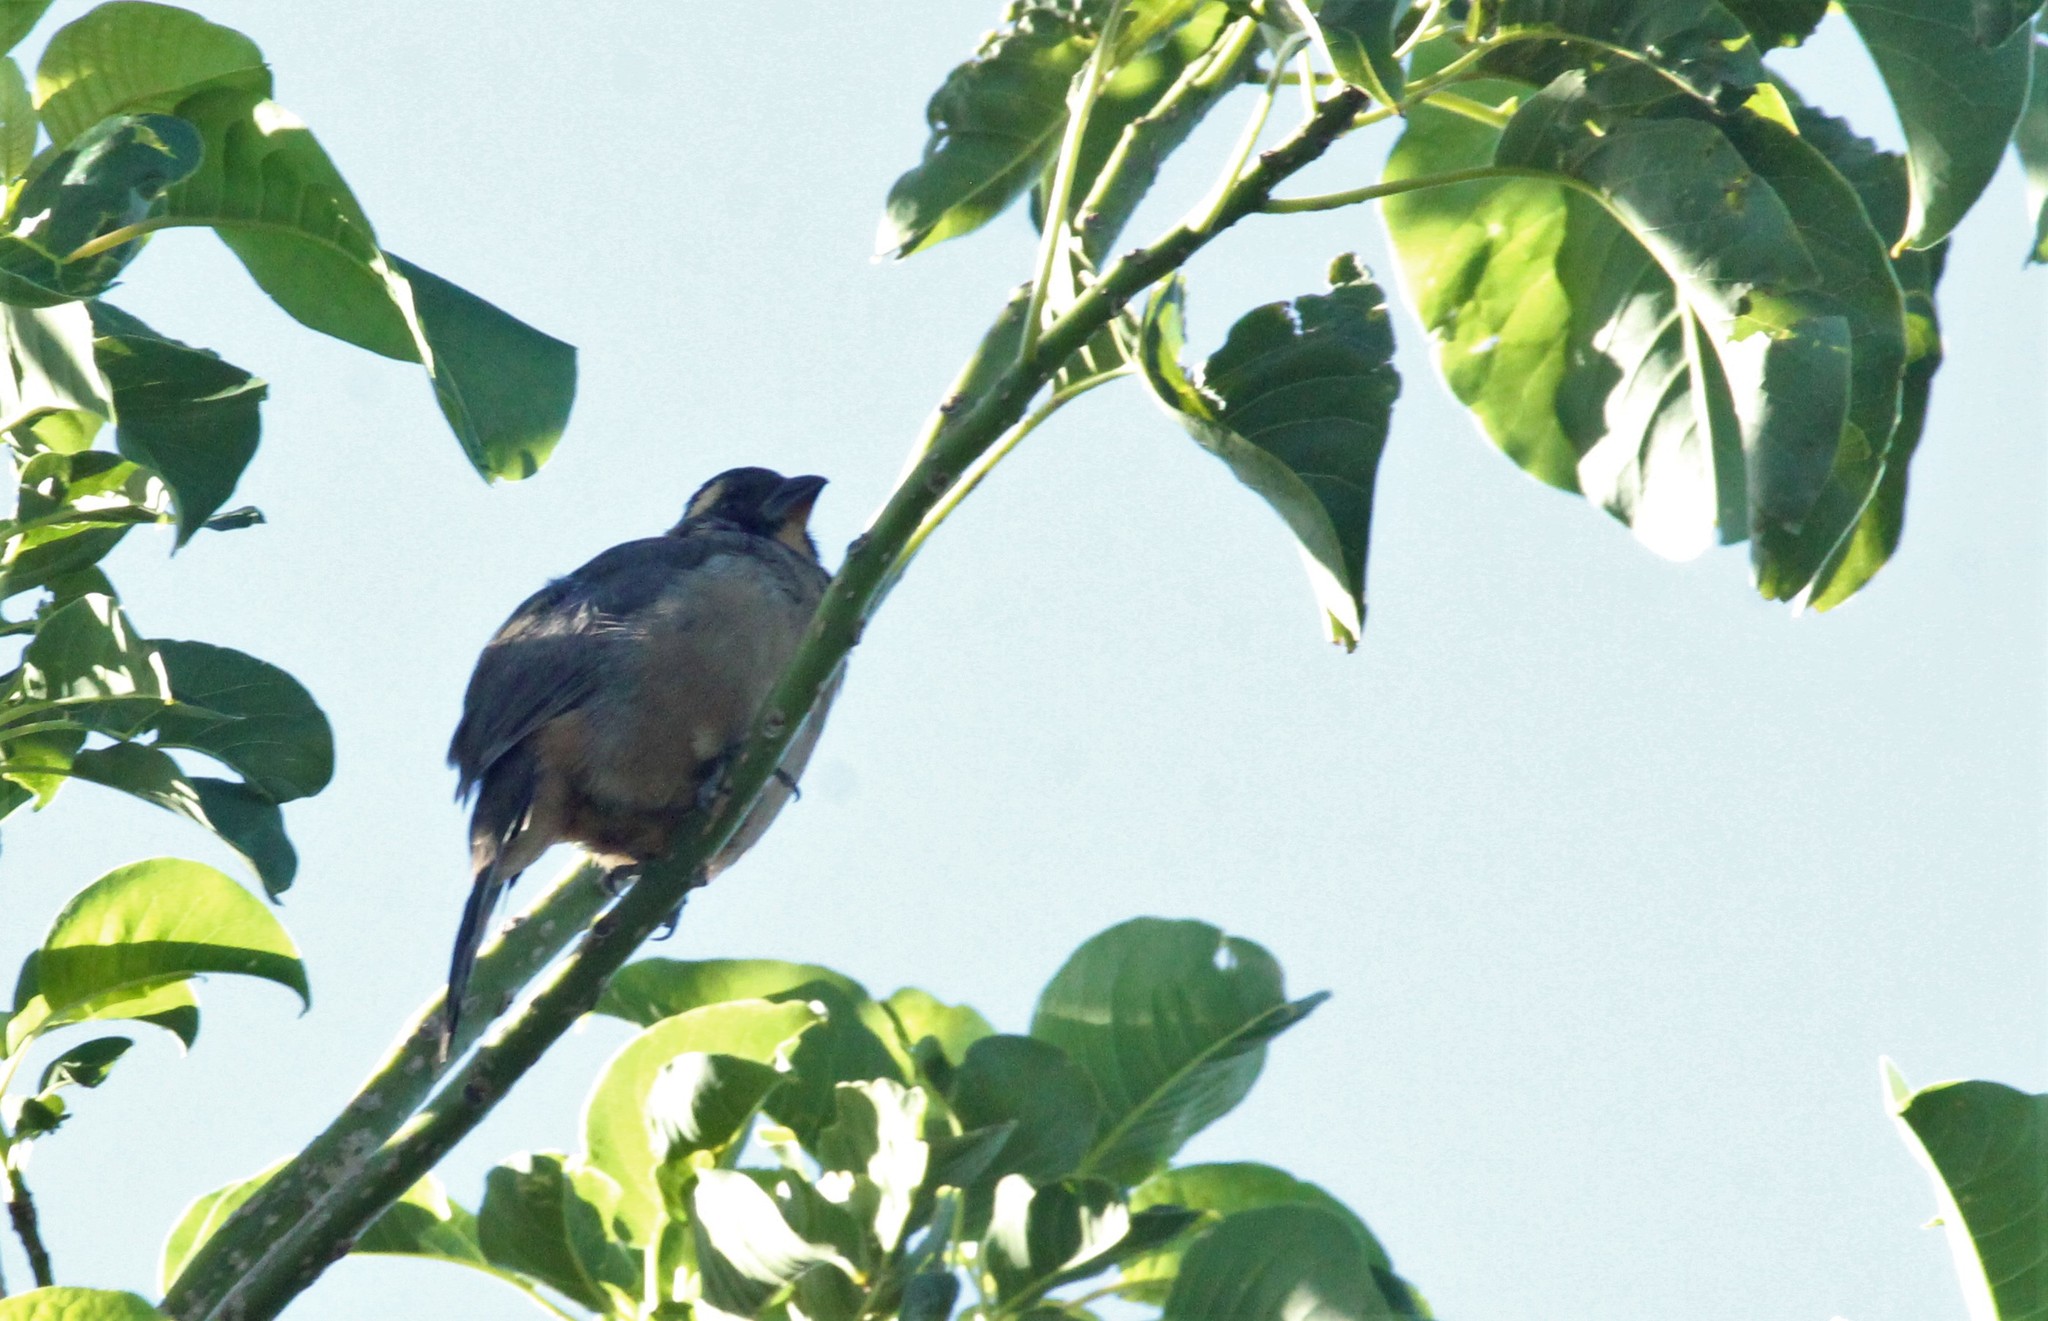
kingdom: Animalia
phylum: Chordata
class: Aves
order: Passeriformes
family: Thraupidae
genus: Saltator
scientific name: Saltator aurantiirostris
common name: Golden-billed saltator
